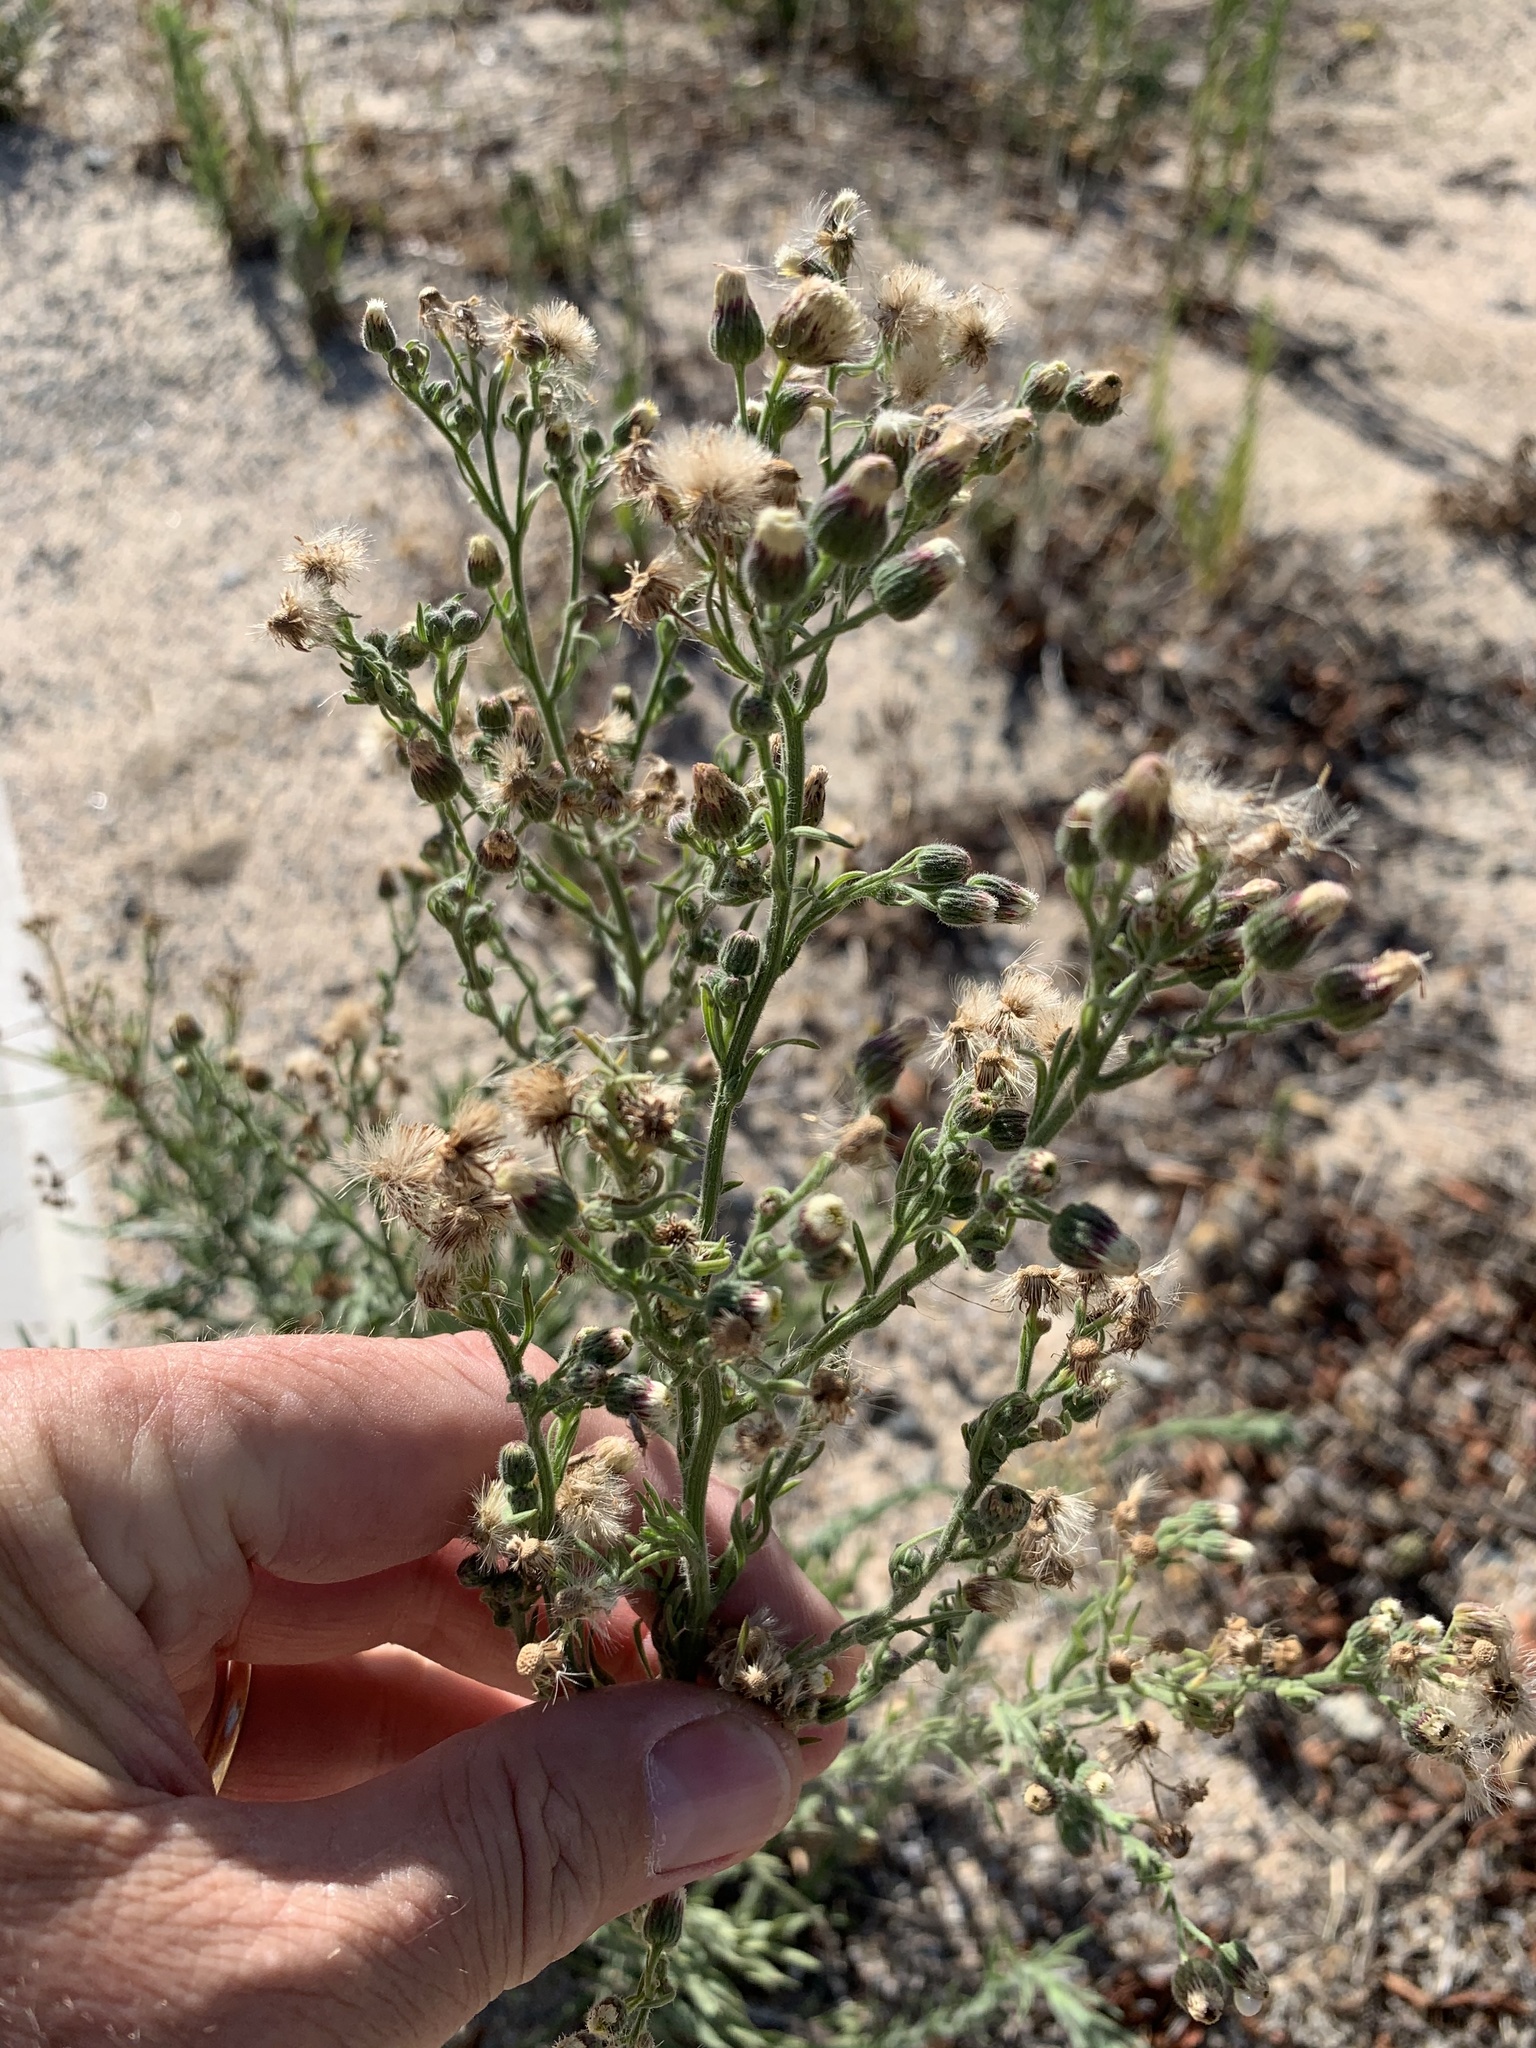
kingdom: Plantae
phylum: Tracheophyta
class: Magnoliopsida
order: Asterales
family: Asteraceae
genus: Erigeron
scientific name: Erigeron bonariensis
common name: Argentine fleabane
